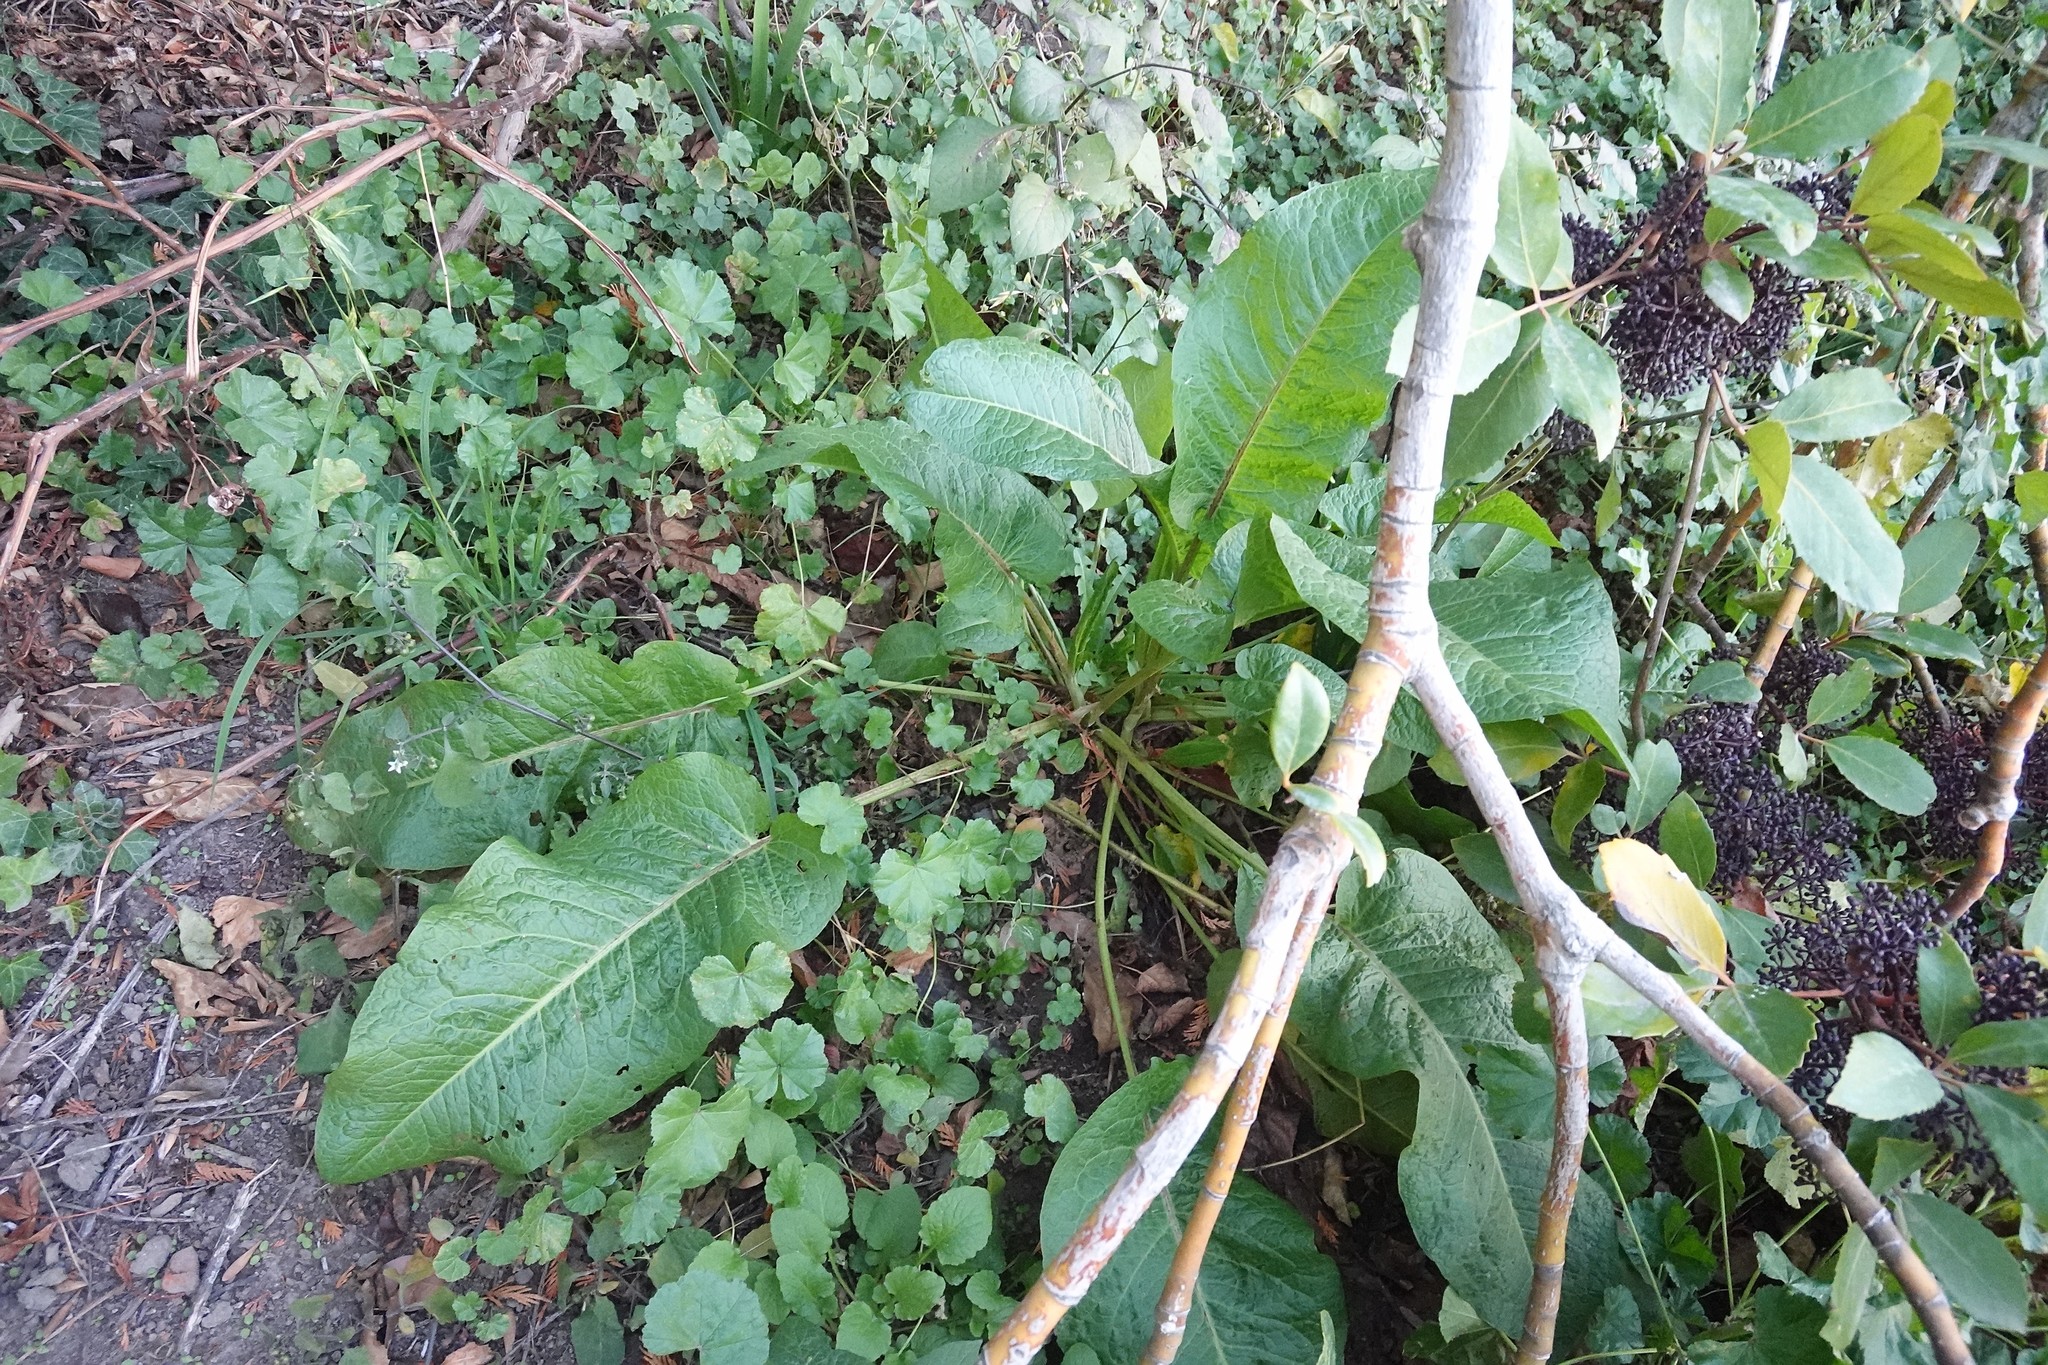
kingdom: Plantae
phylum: Tracheophyta
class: Magnoliopsida
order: Caryophyllales
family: Polygonaceae
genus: Rumex
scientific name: Rumex obtusifolius
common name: Bitter dock
